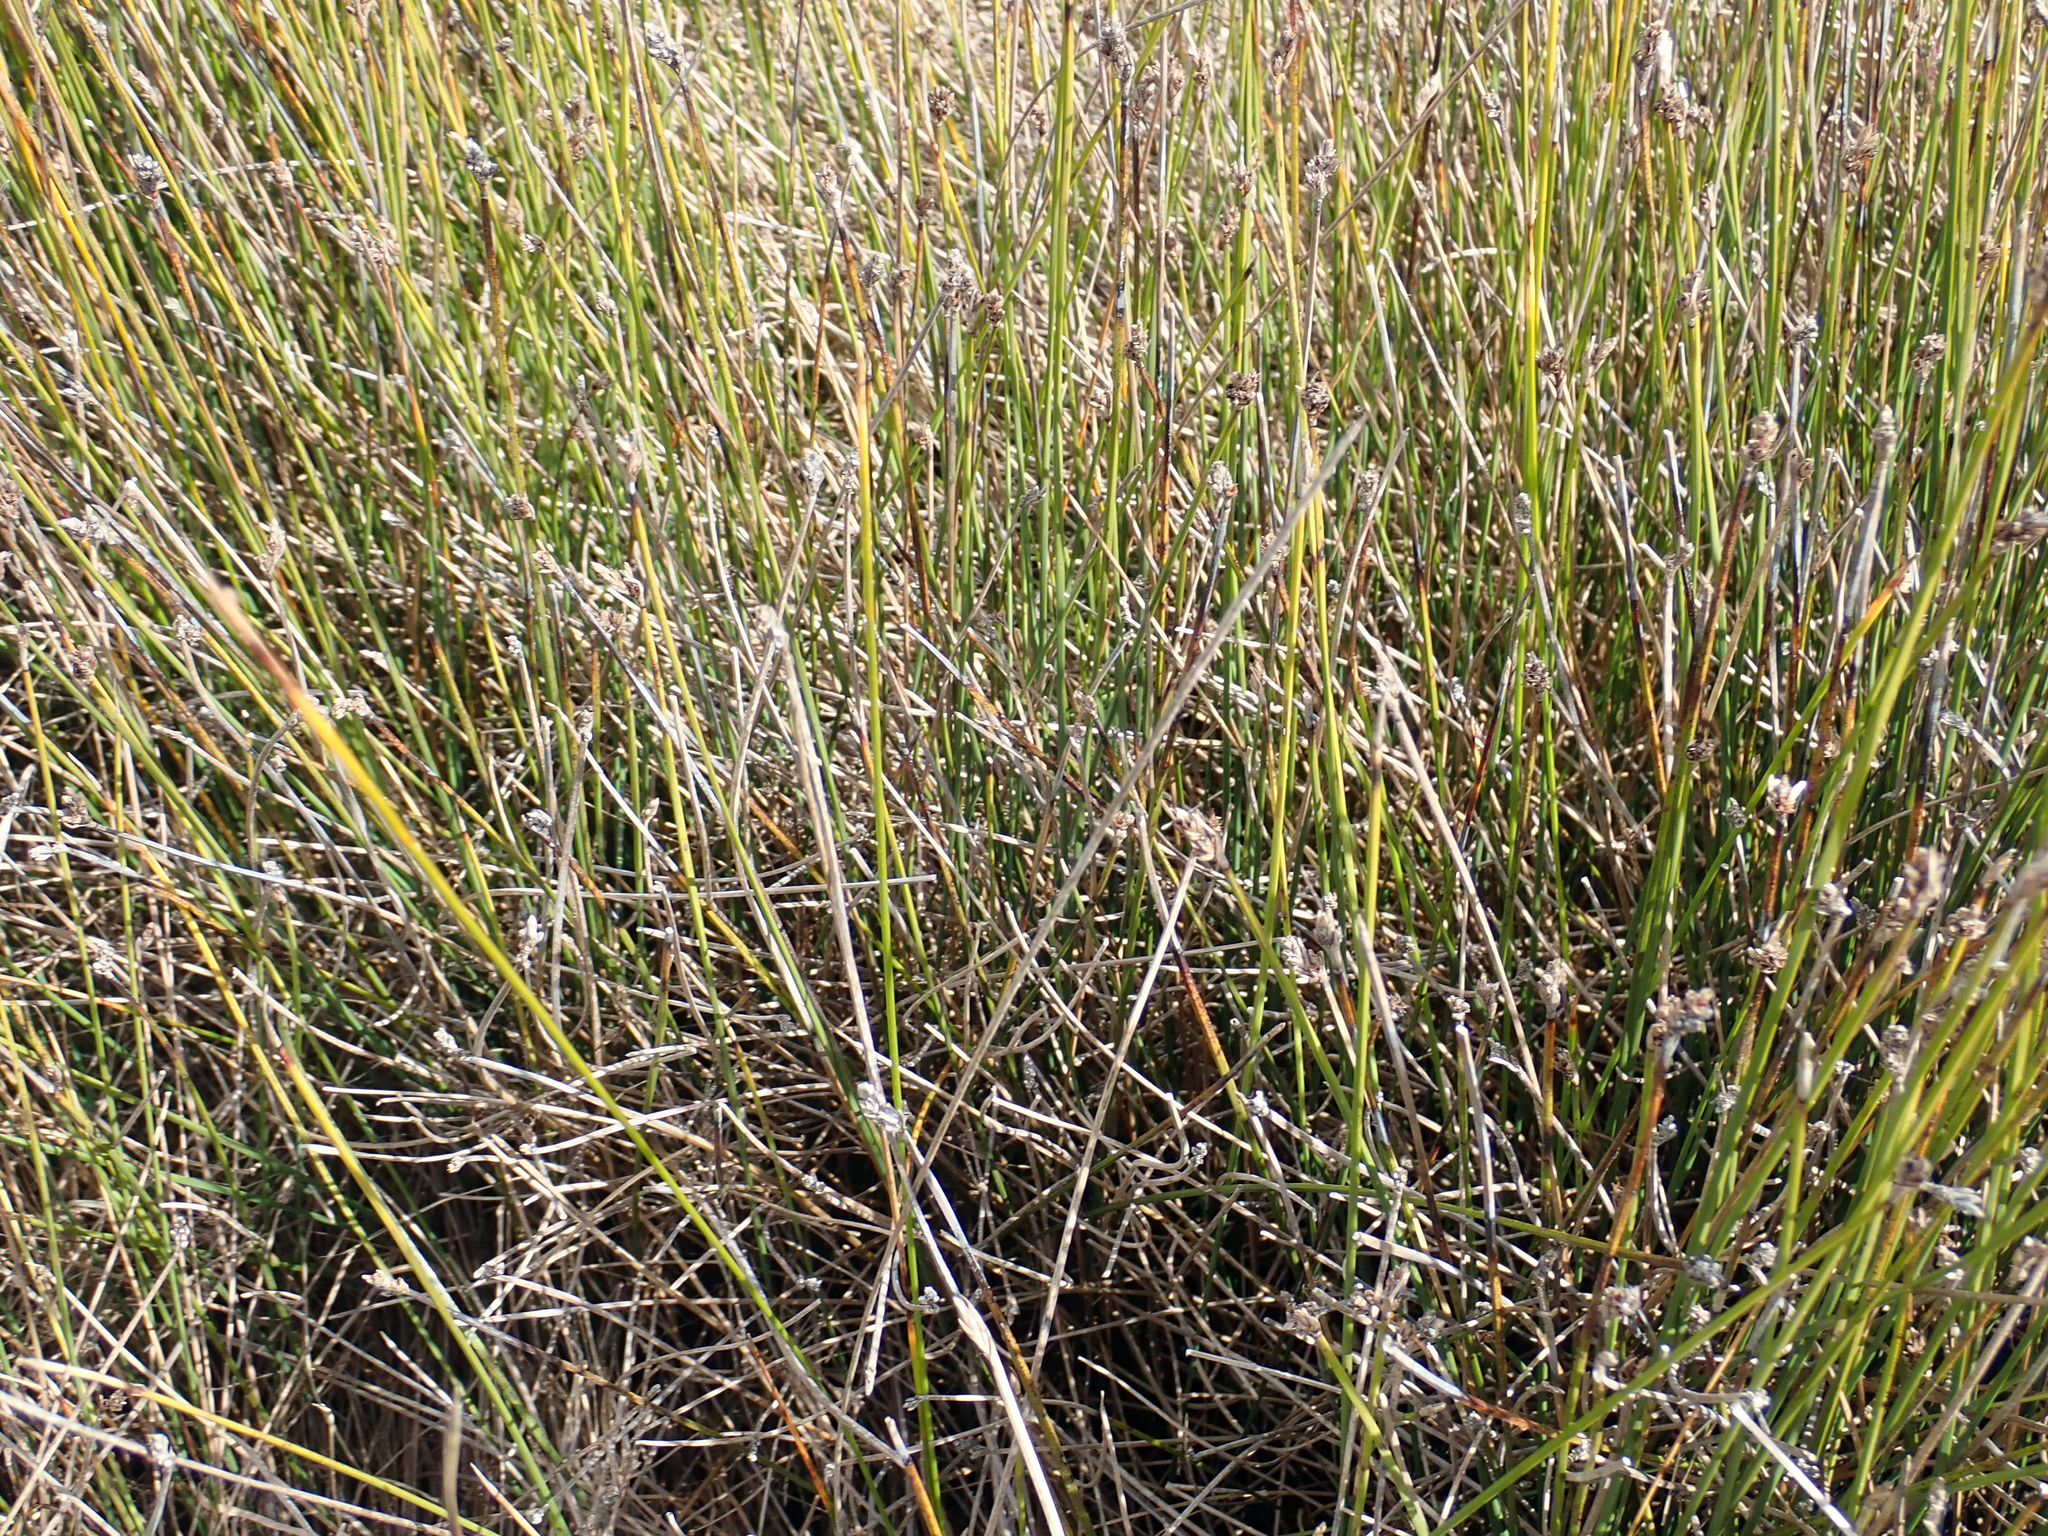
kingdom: Plantae
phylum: Tracheophyta
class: Liliopsida
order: Poales
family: Cyperaceae
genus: Lepidosperma
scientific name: Lepidosperma australe
